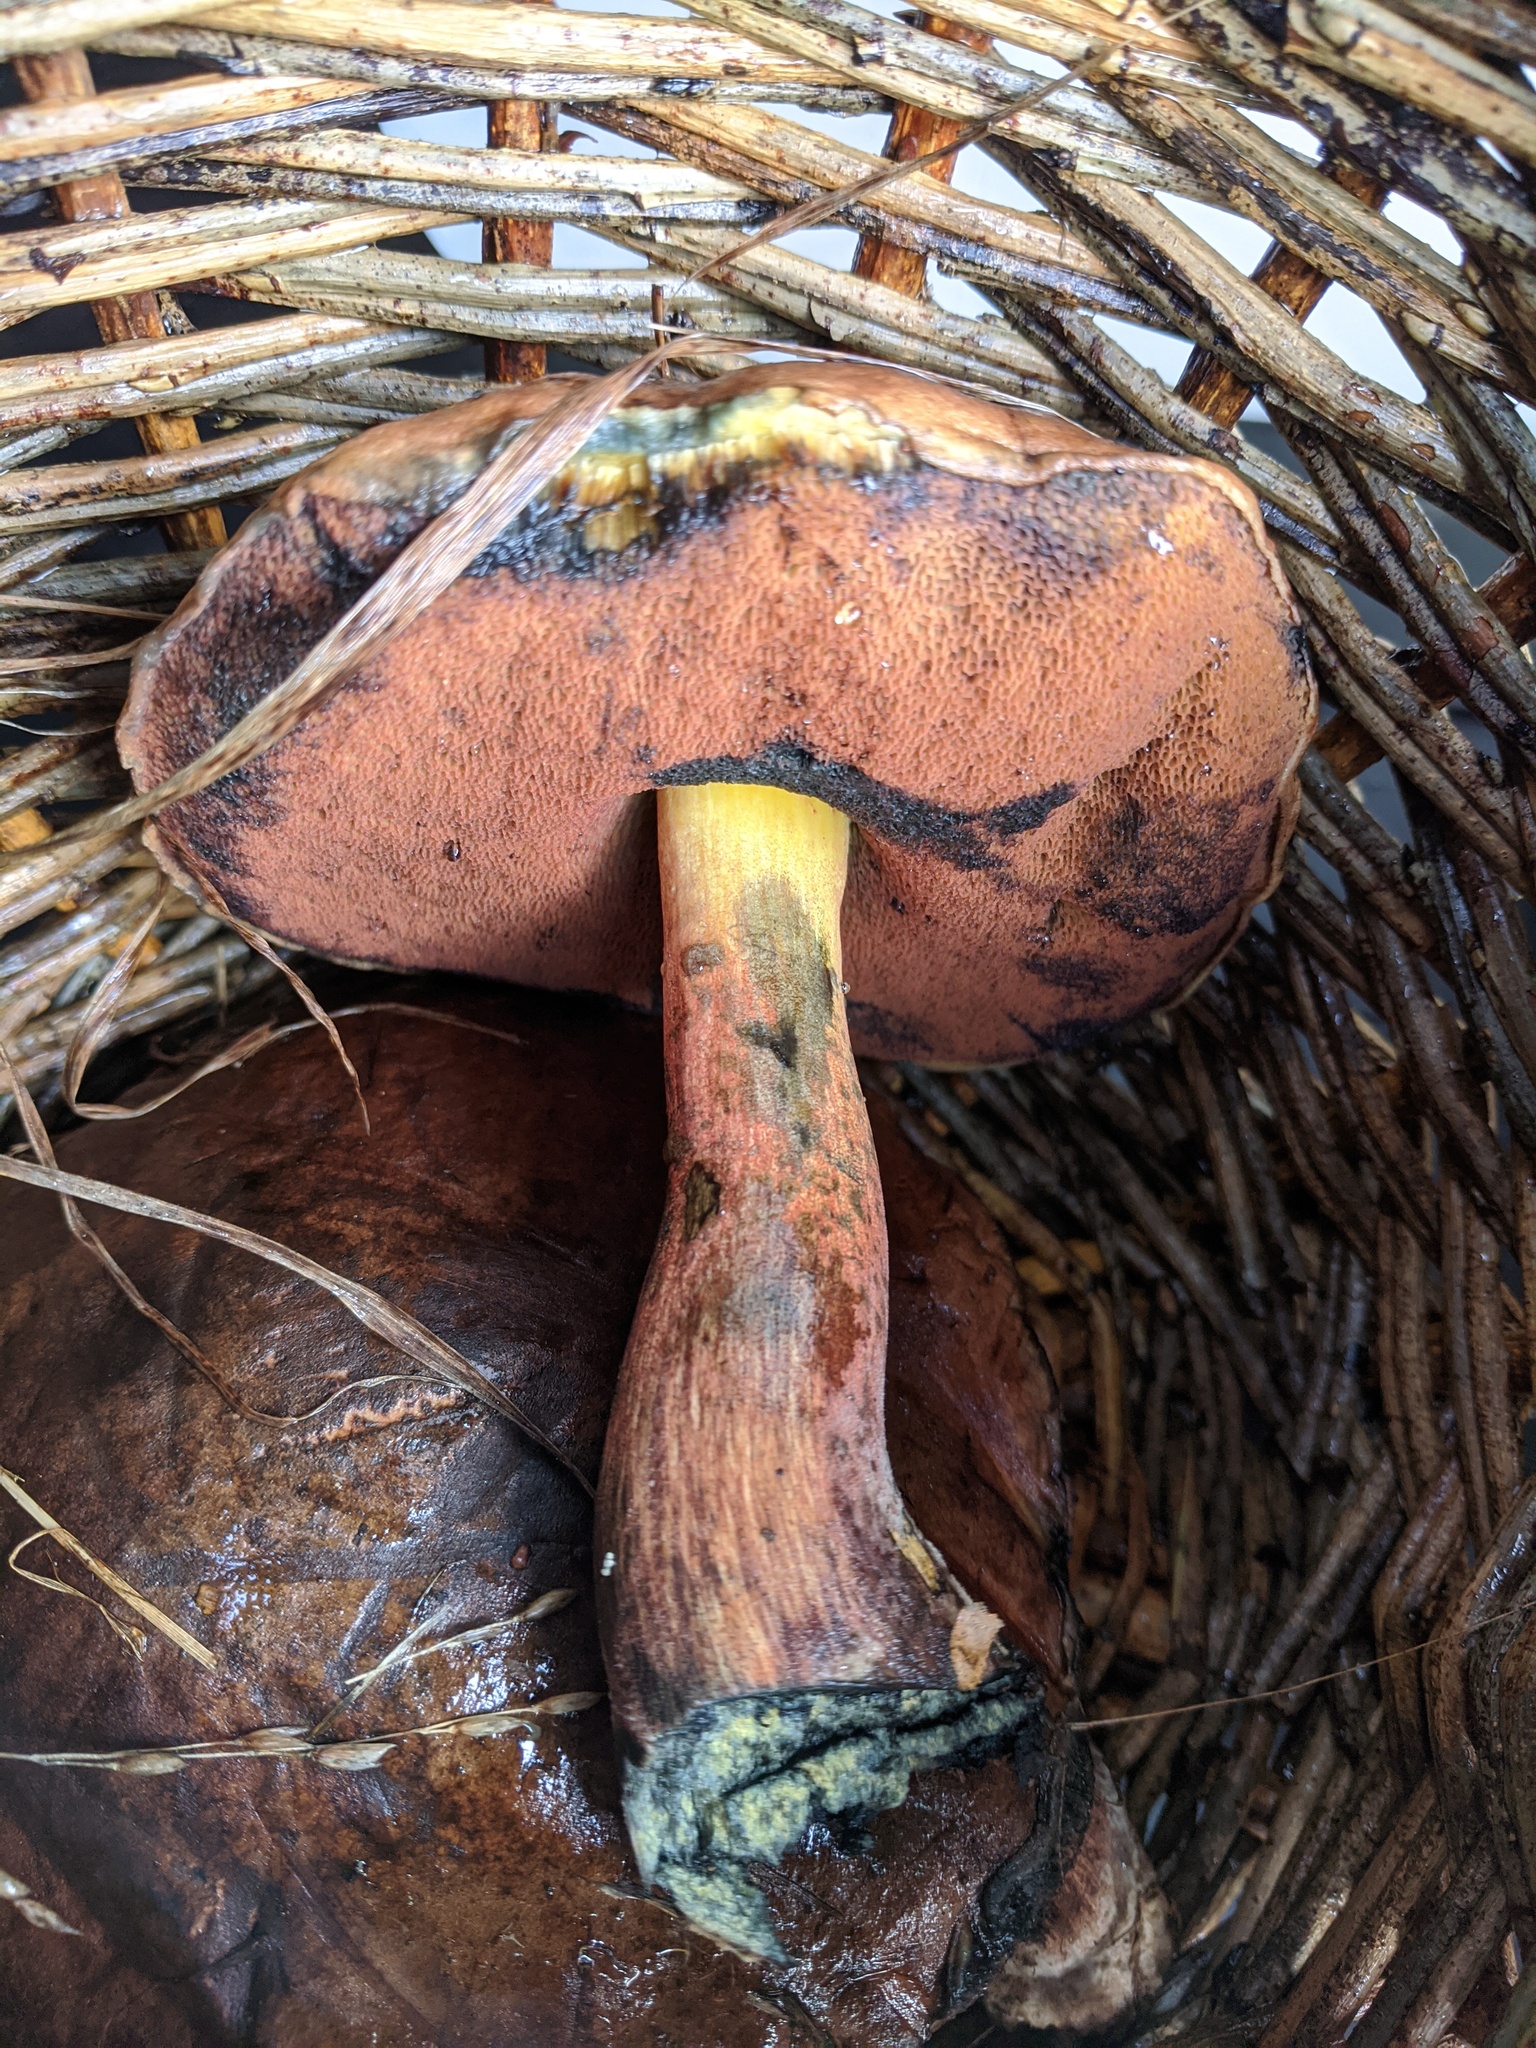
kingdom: Fungi
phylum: Basidiomycota
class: Agaricomycetes
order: Boletales
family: Boletaceae
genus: Neoboletus
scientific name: Neoboletus luridiformis
